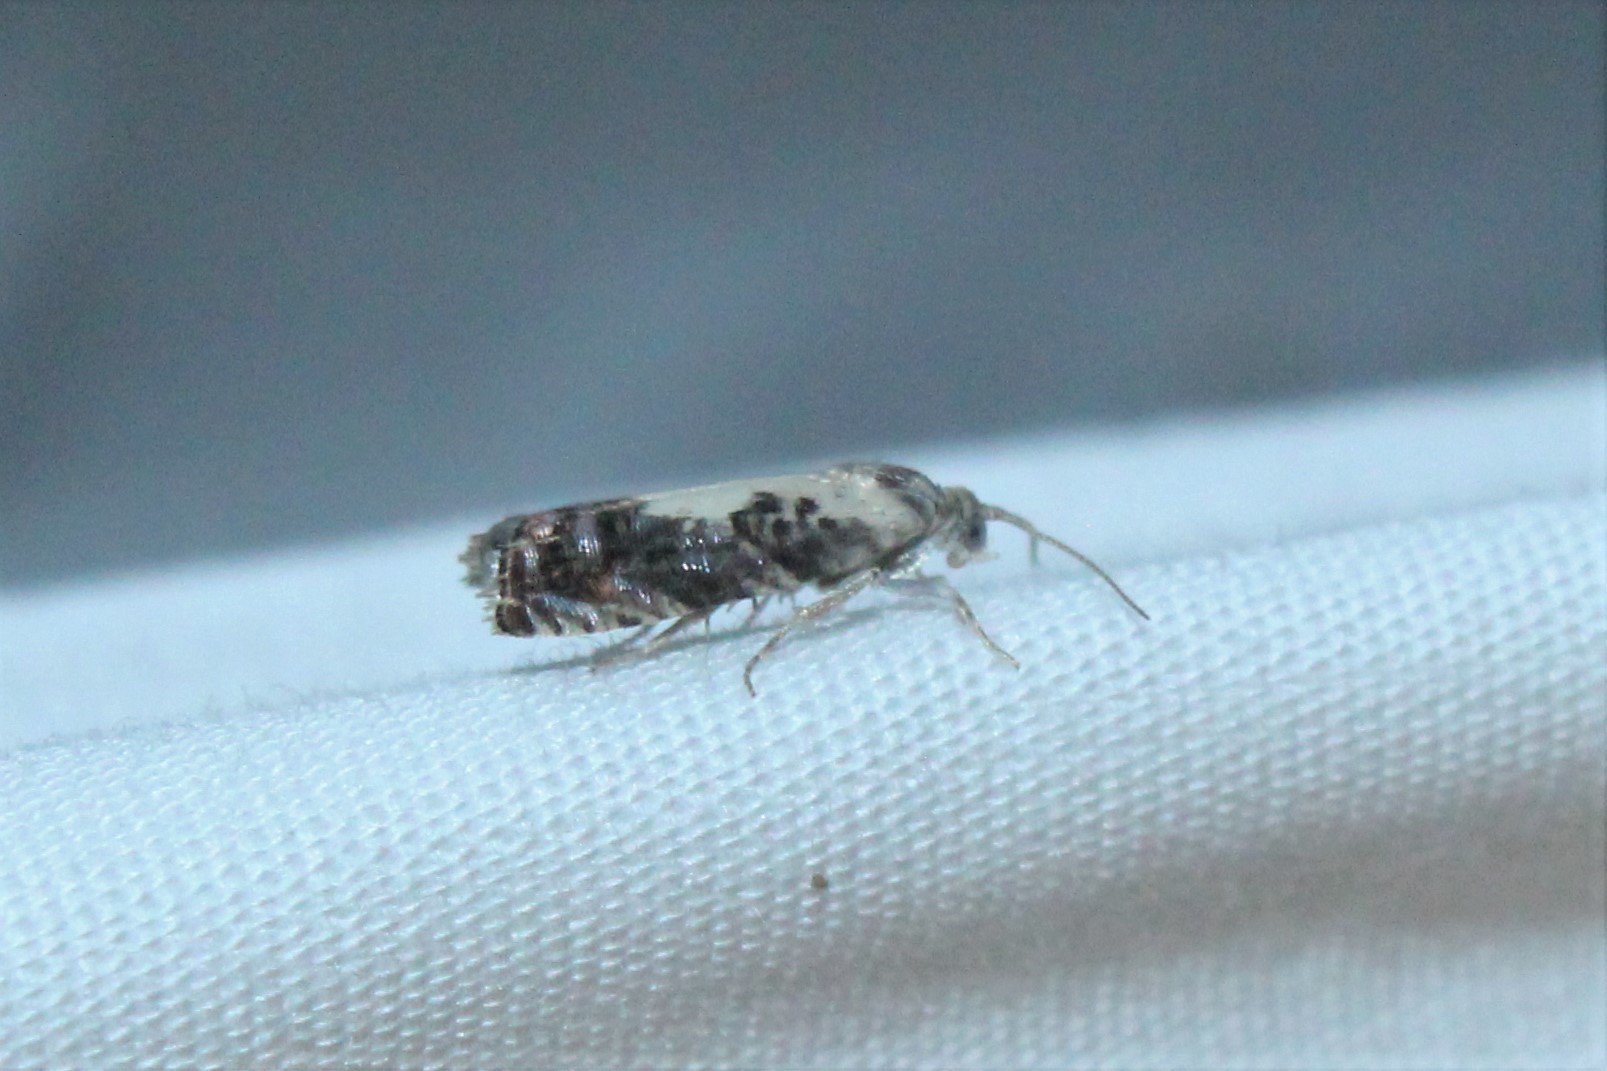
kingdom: Animalia
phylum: Arthropoda
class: Insecta
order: Lepidoptera
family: Tortricidae
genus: Pammene
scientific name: Pammene felicitana
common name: Happy pammene
